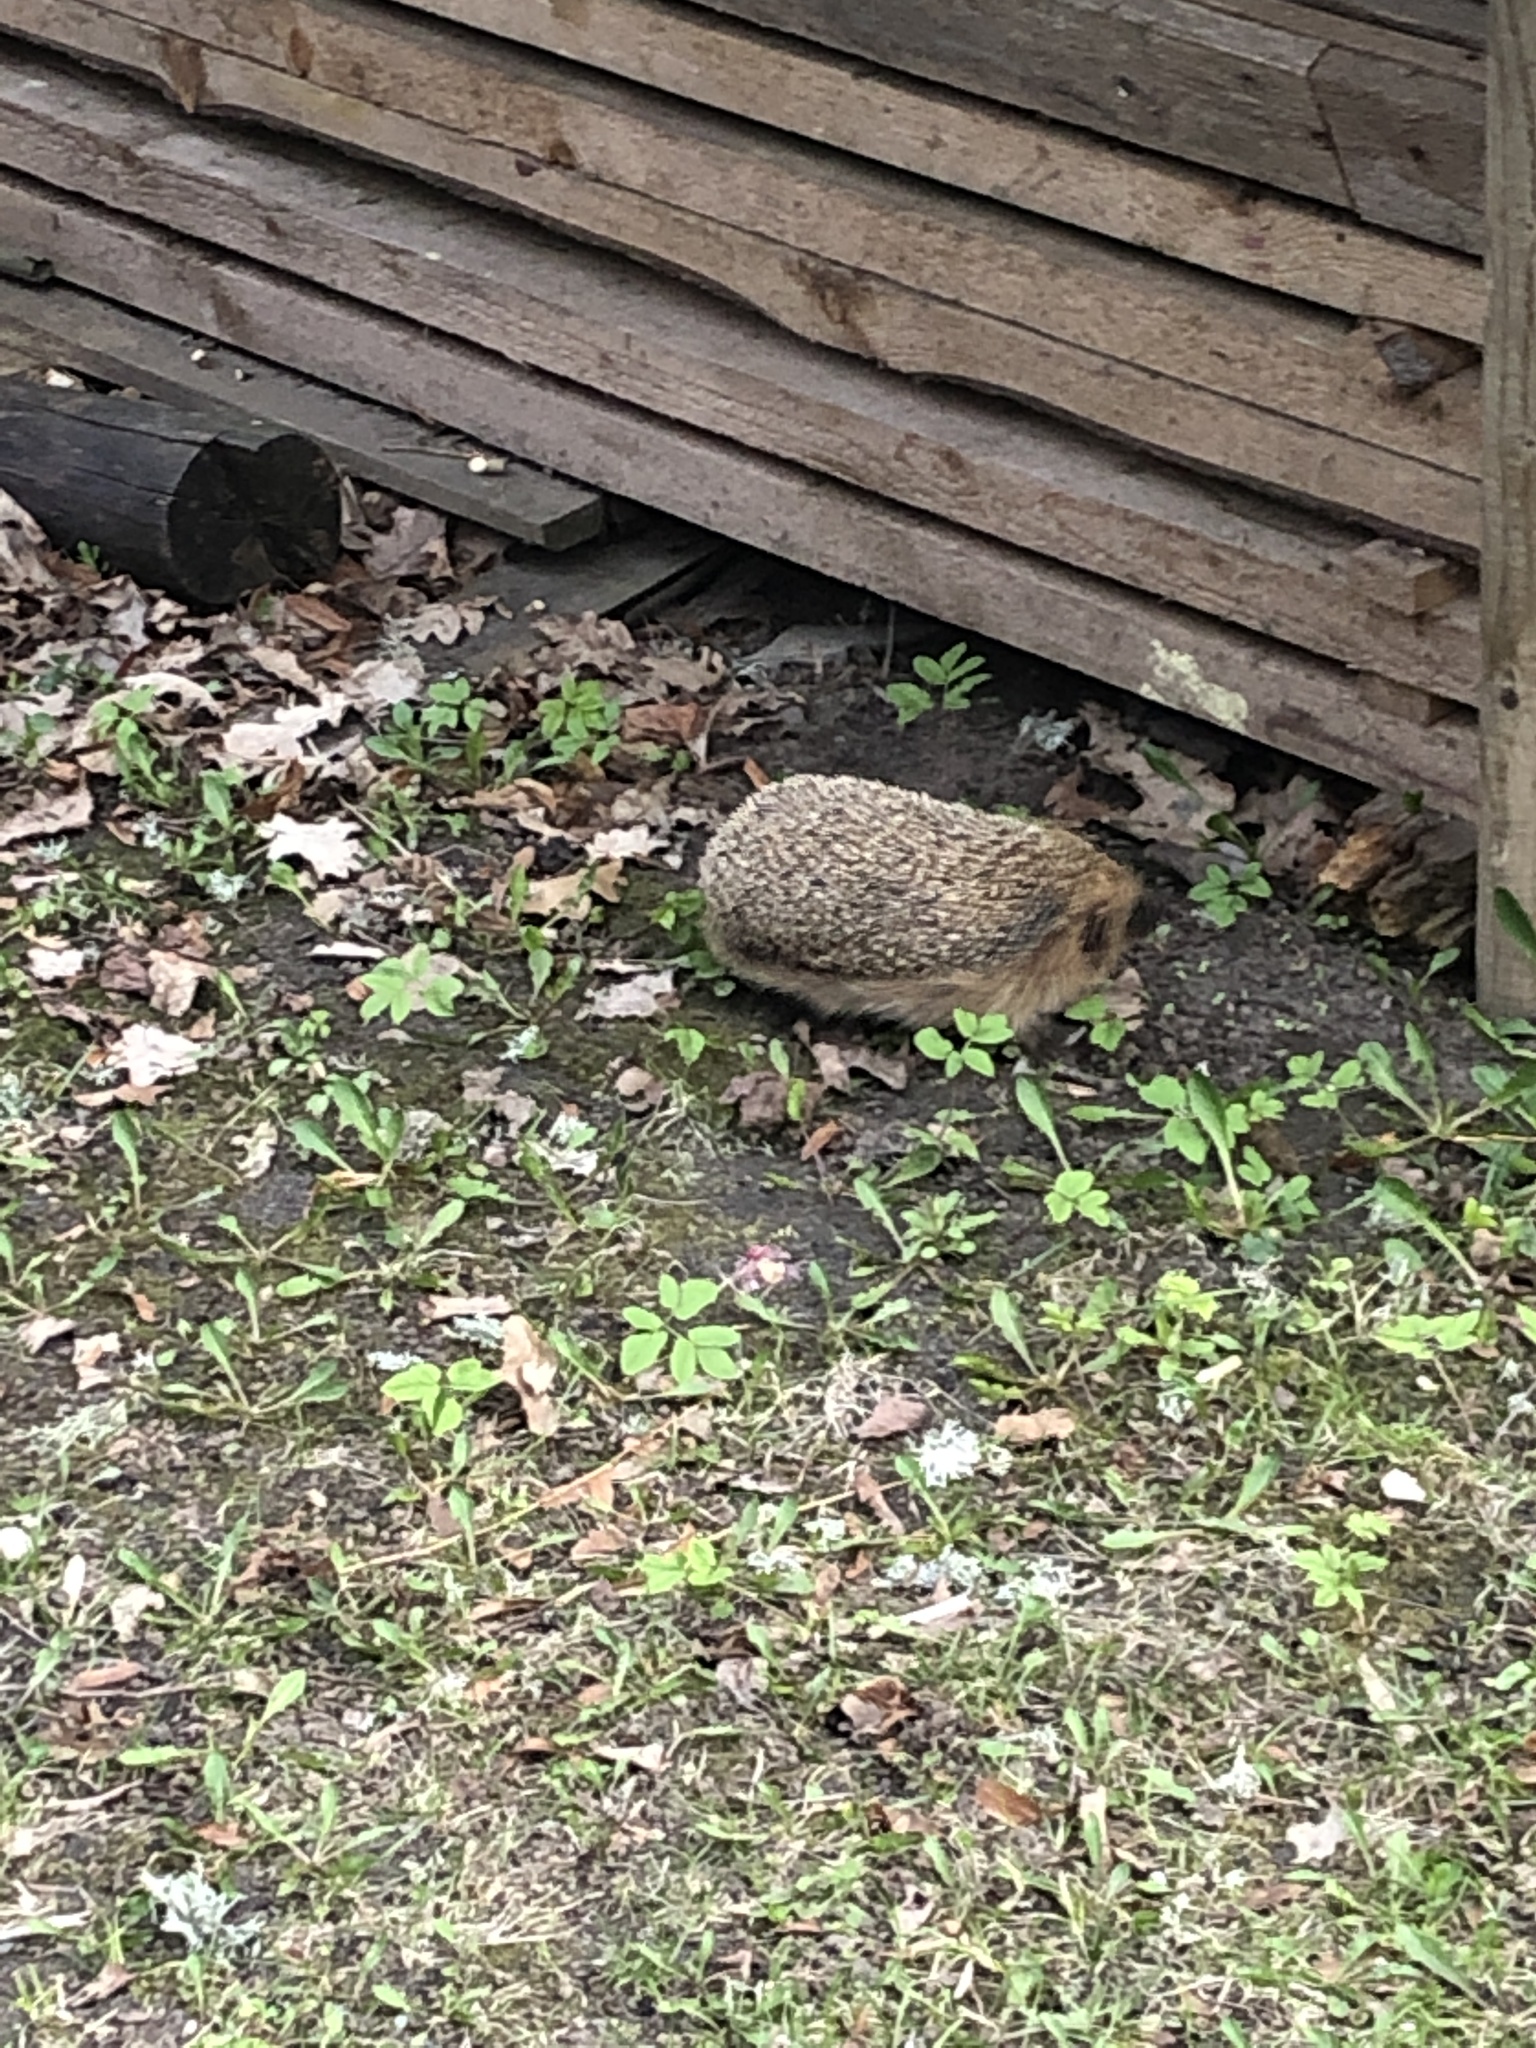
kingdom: Animalia
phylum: Chordata
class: Mammalia
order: Erinaceomorpha
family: Erinaceidae
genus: Erinaceus
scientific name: Erinaceus europaeus
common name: West european hedgehog
